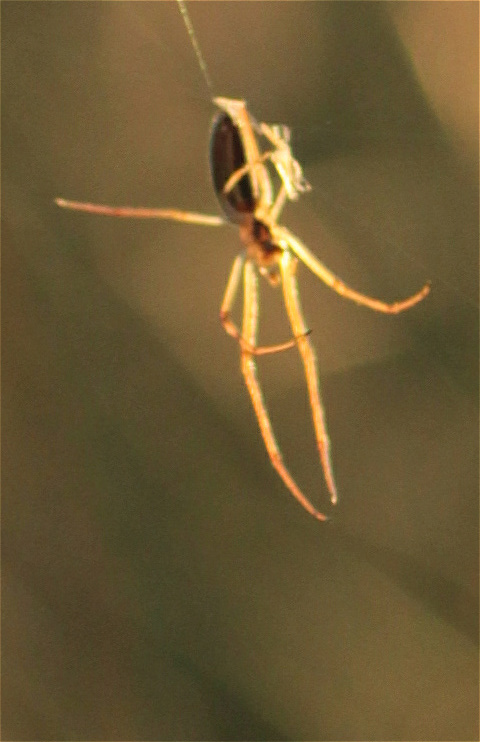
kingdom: Animalia
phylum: Arthropoda
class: Arachnida
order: Araneae
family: Tetragnathidae
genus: Tetragnatha
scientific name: Tetragnatha extensa
